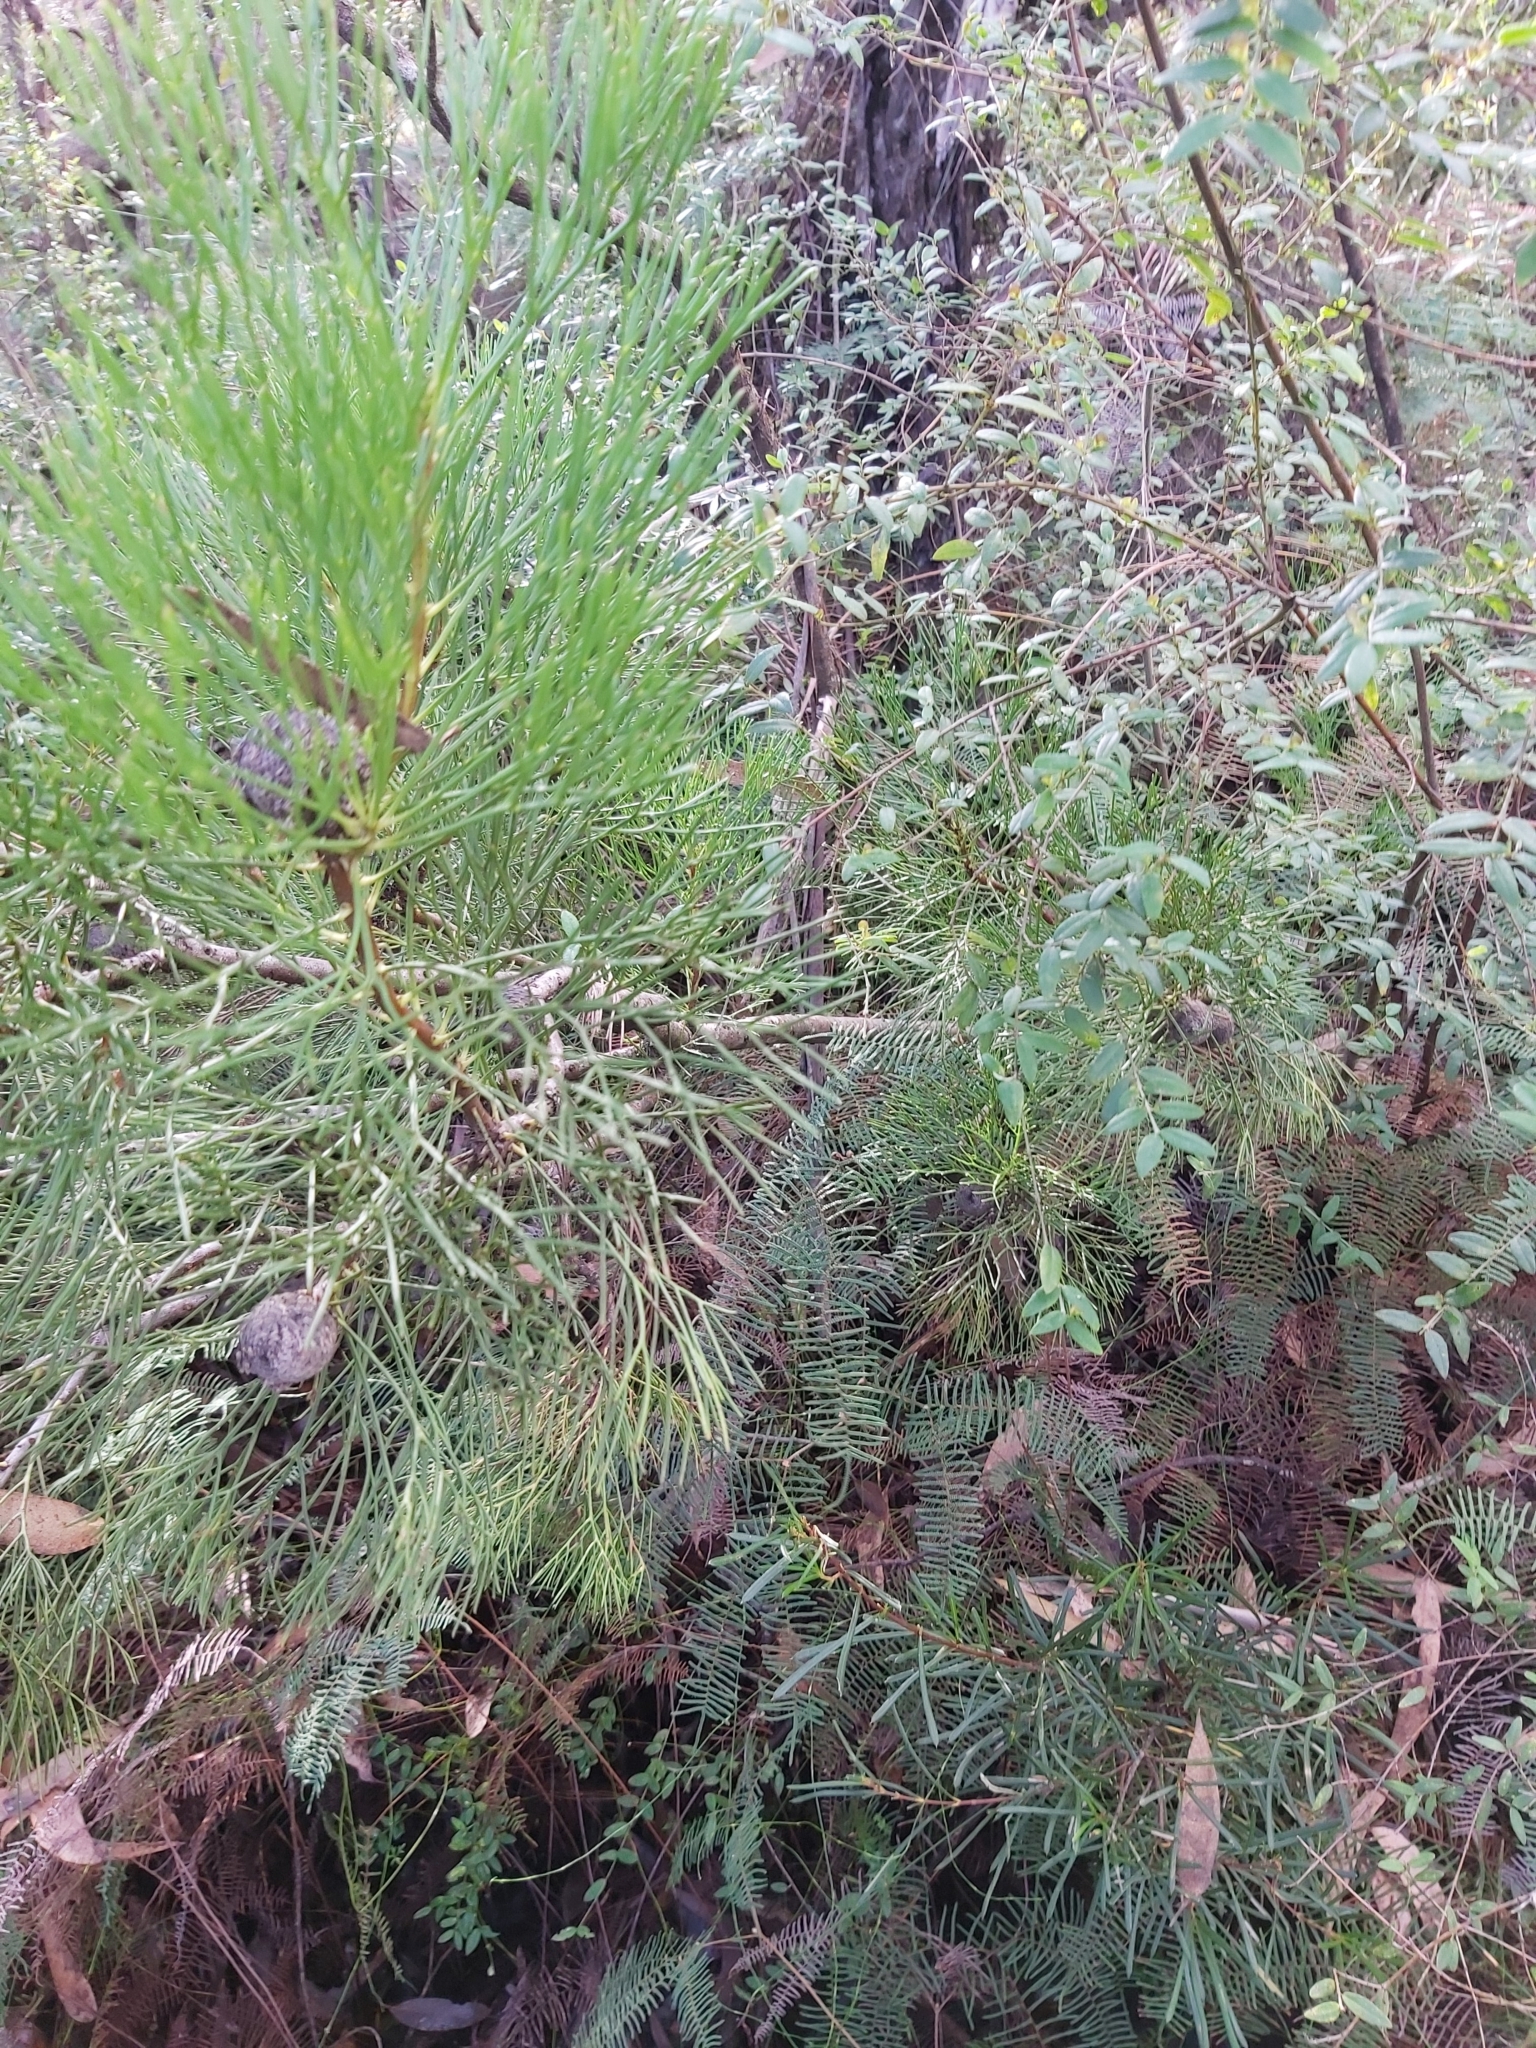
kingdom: Plantae
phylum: Tracheophyta
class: Magnoliopsida
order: Proteales
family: Proteaceae
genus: Isopogon
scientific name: Isopogon anethifolius
